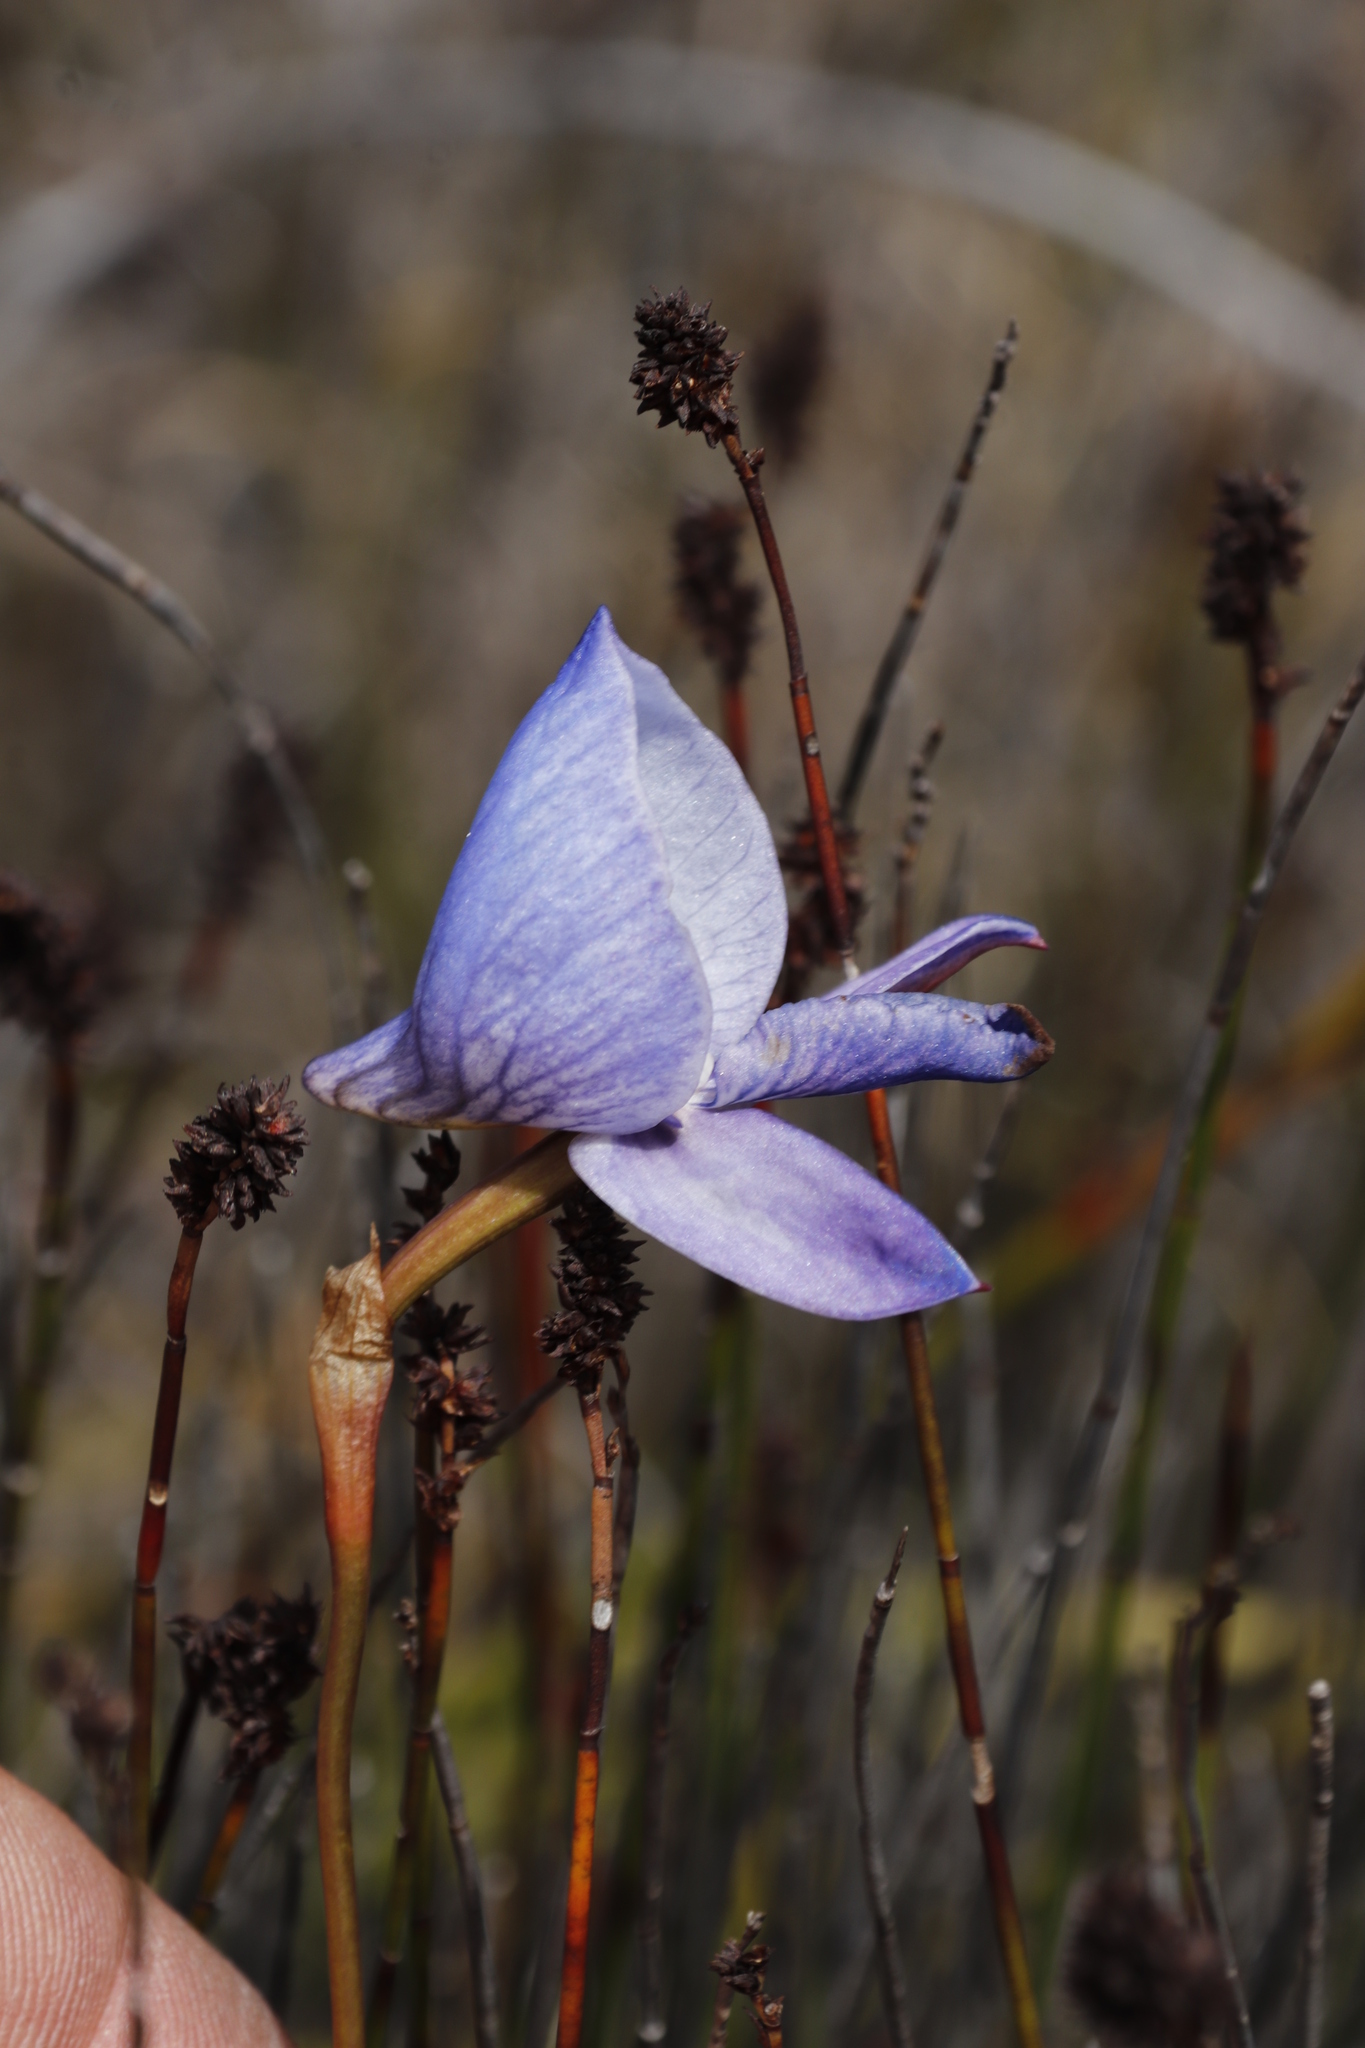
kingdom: Plantae
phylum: Tracheophyta
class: Liliopsida
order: Asparagales
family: Orchidaceae
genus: Disa
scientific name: Disa purpurascens
